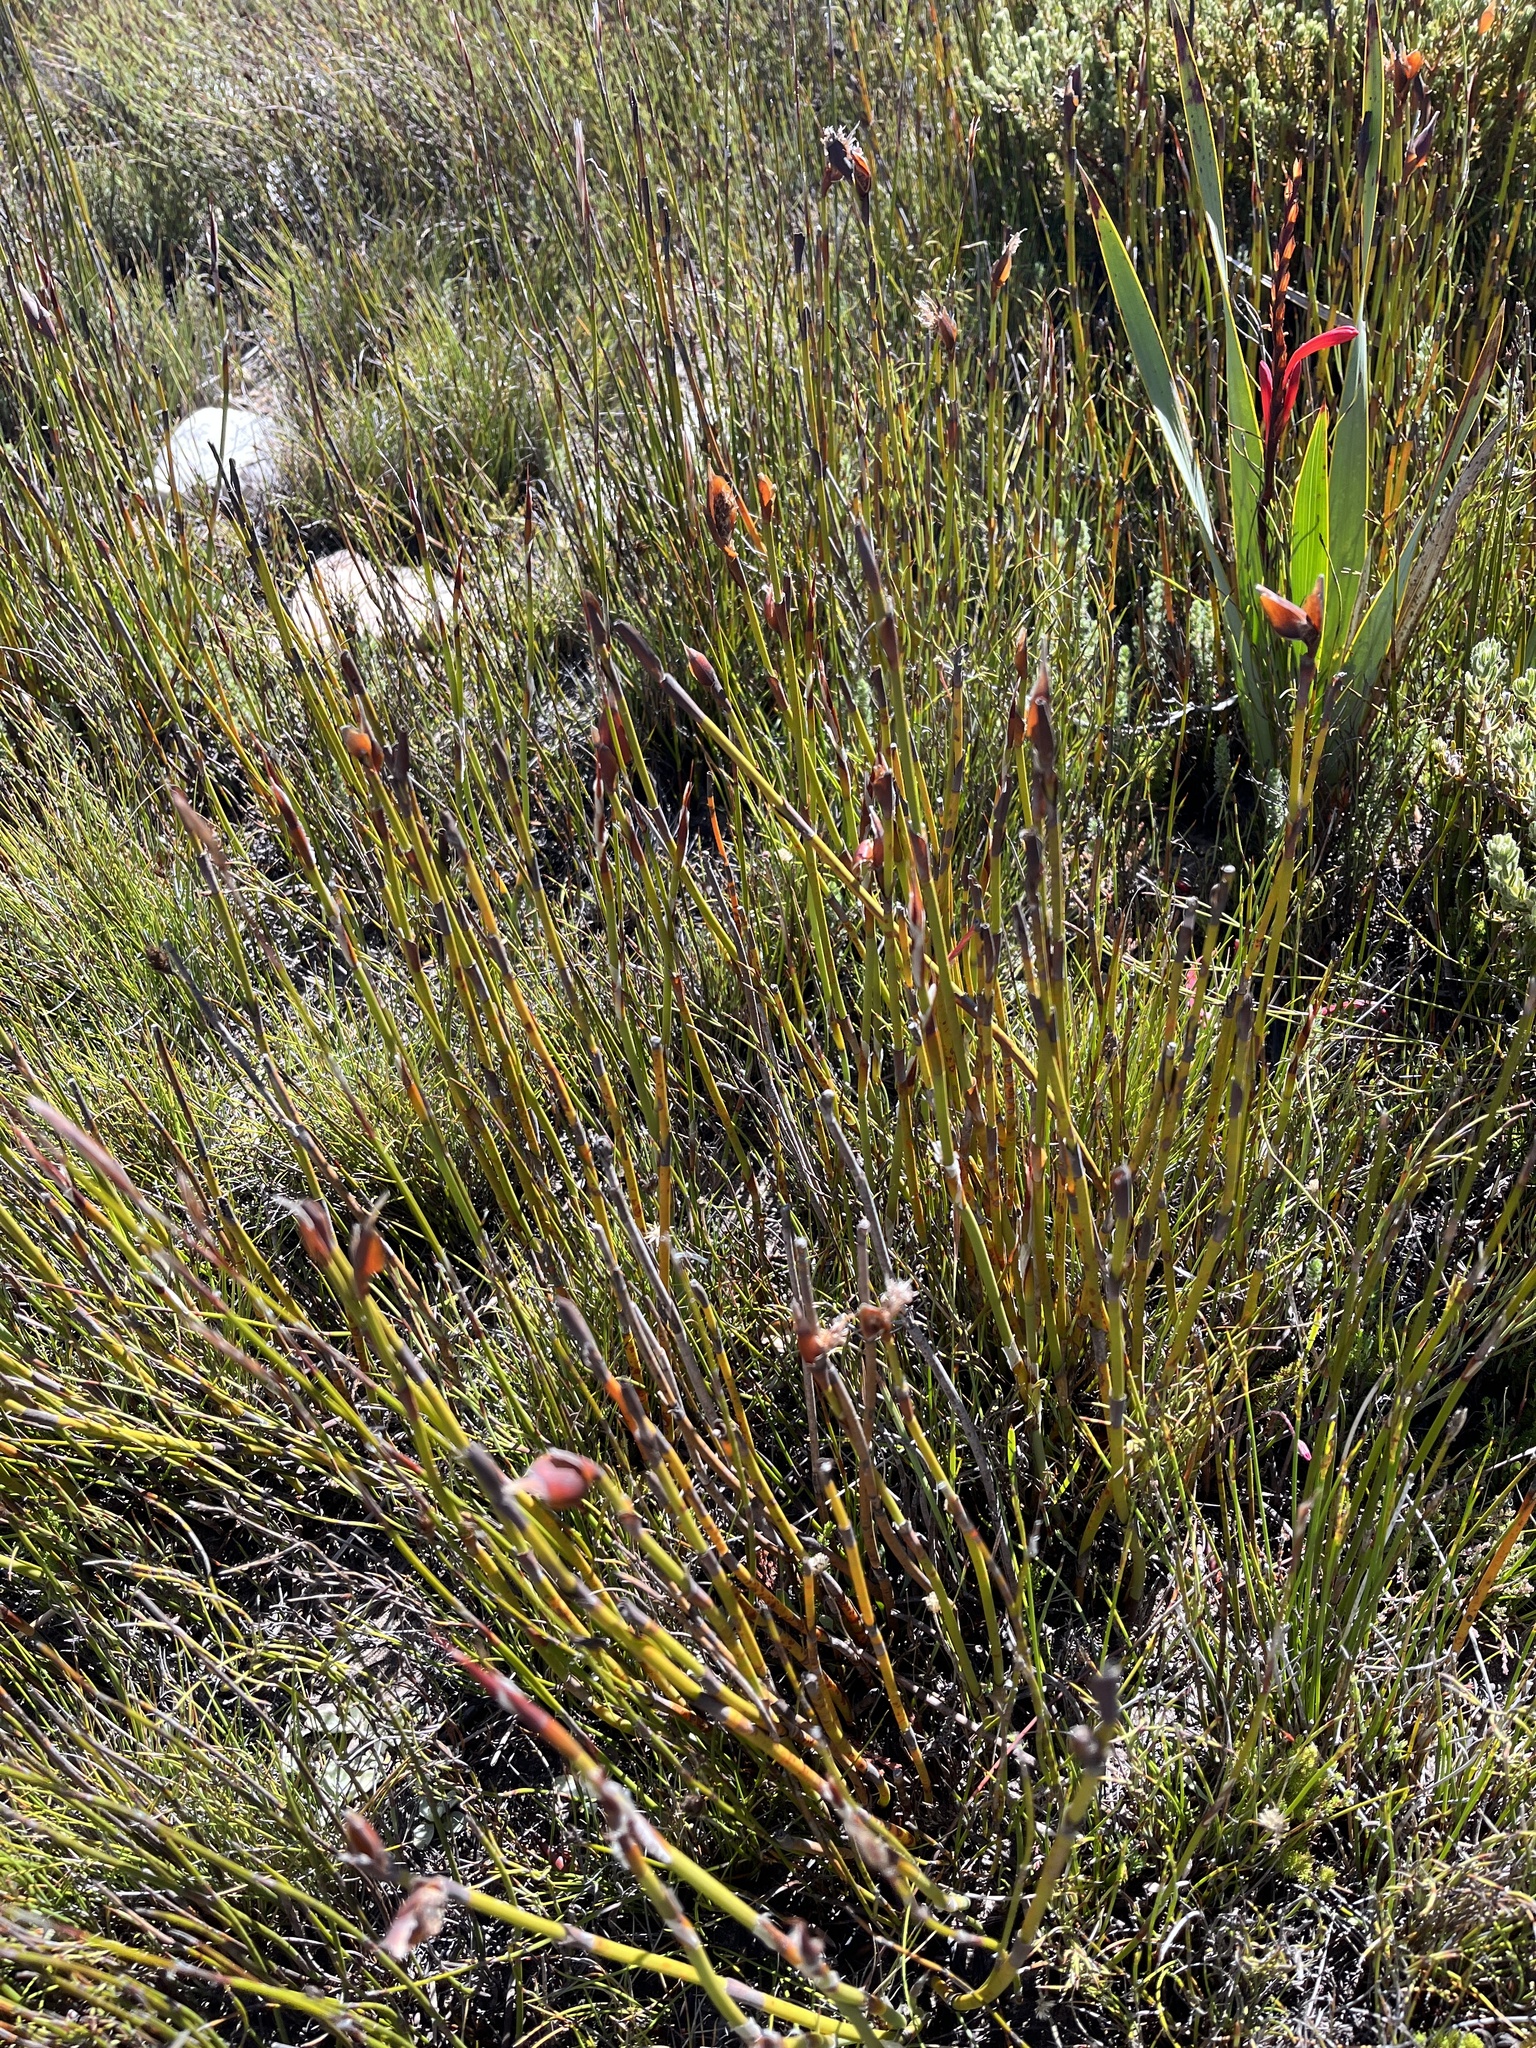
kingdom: Plantae
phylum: Tracheophyta
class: Liliopsida
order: Poales
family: Restionaceae
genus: Willdenowia
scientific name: Willdenowia stokoei
